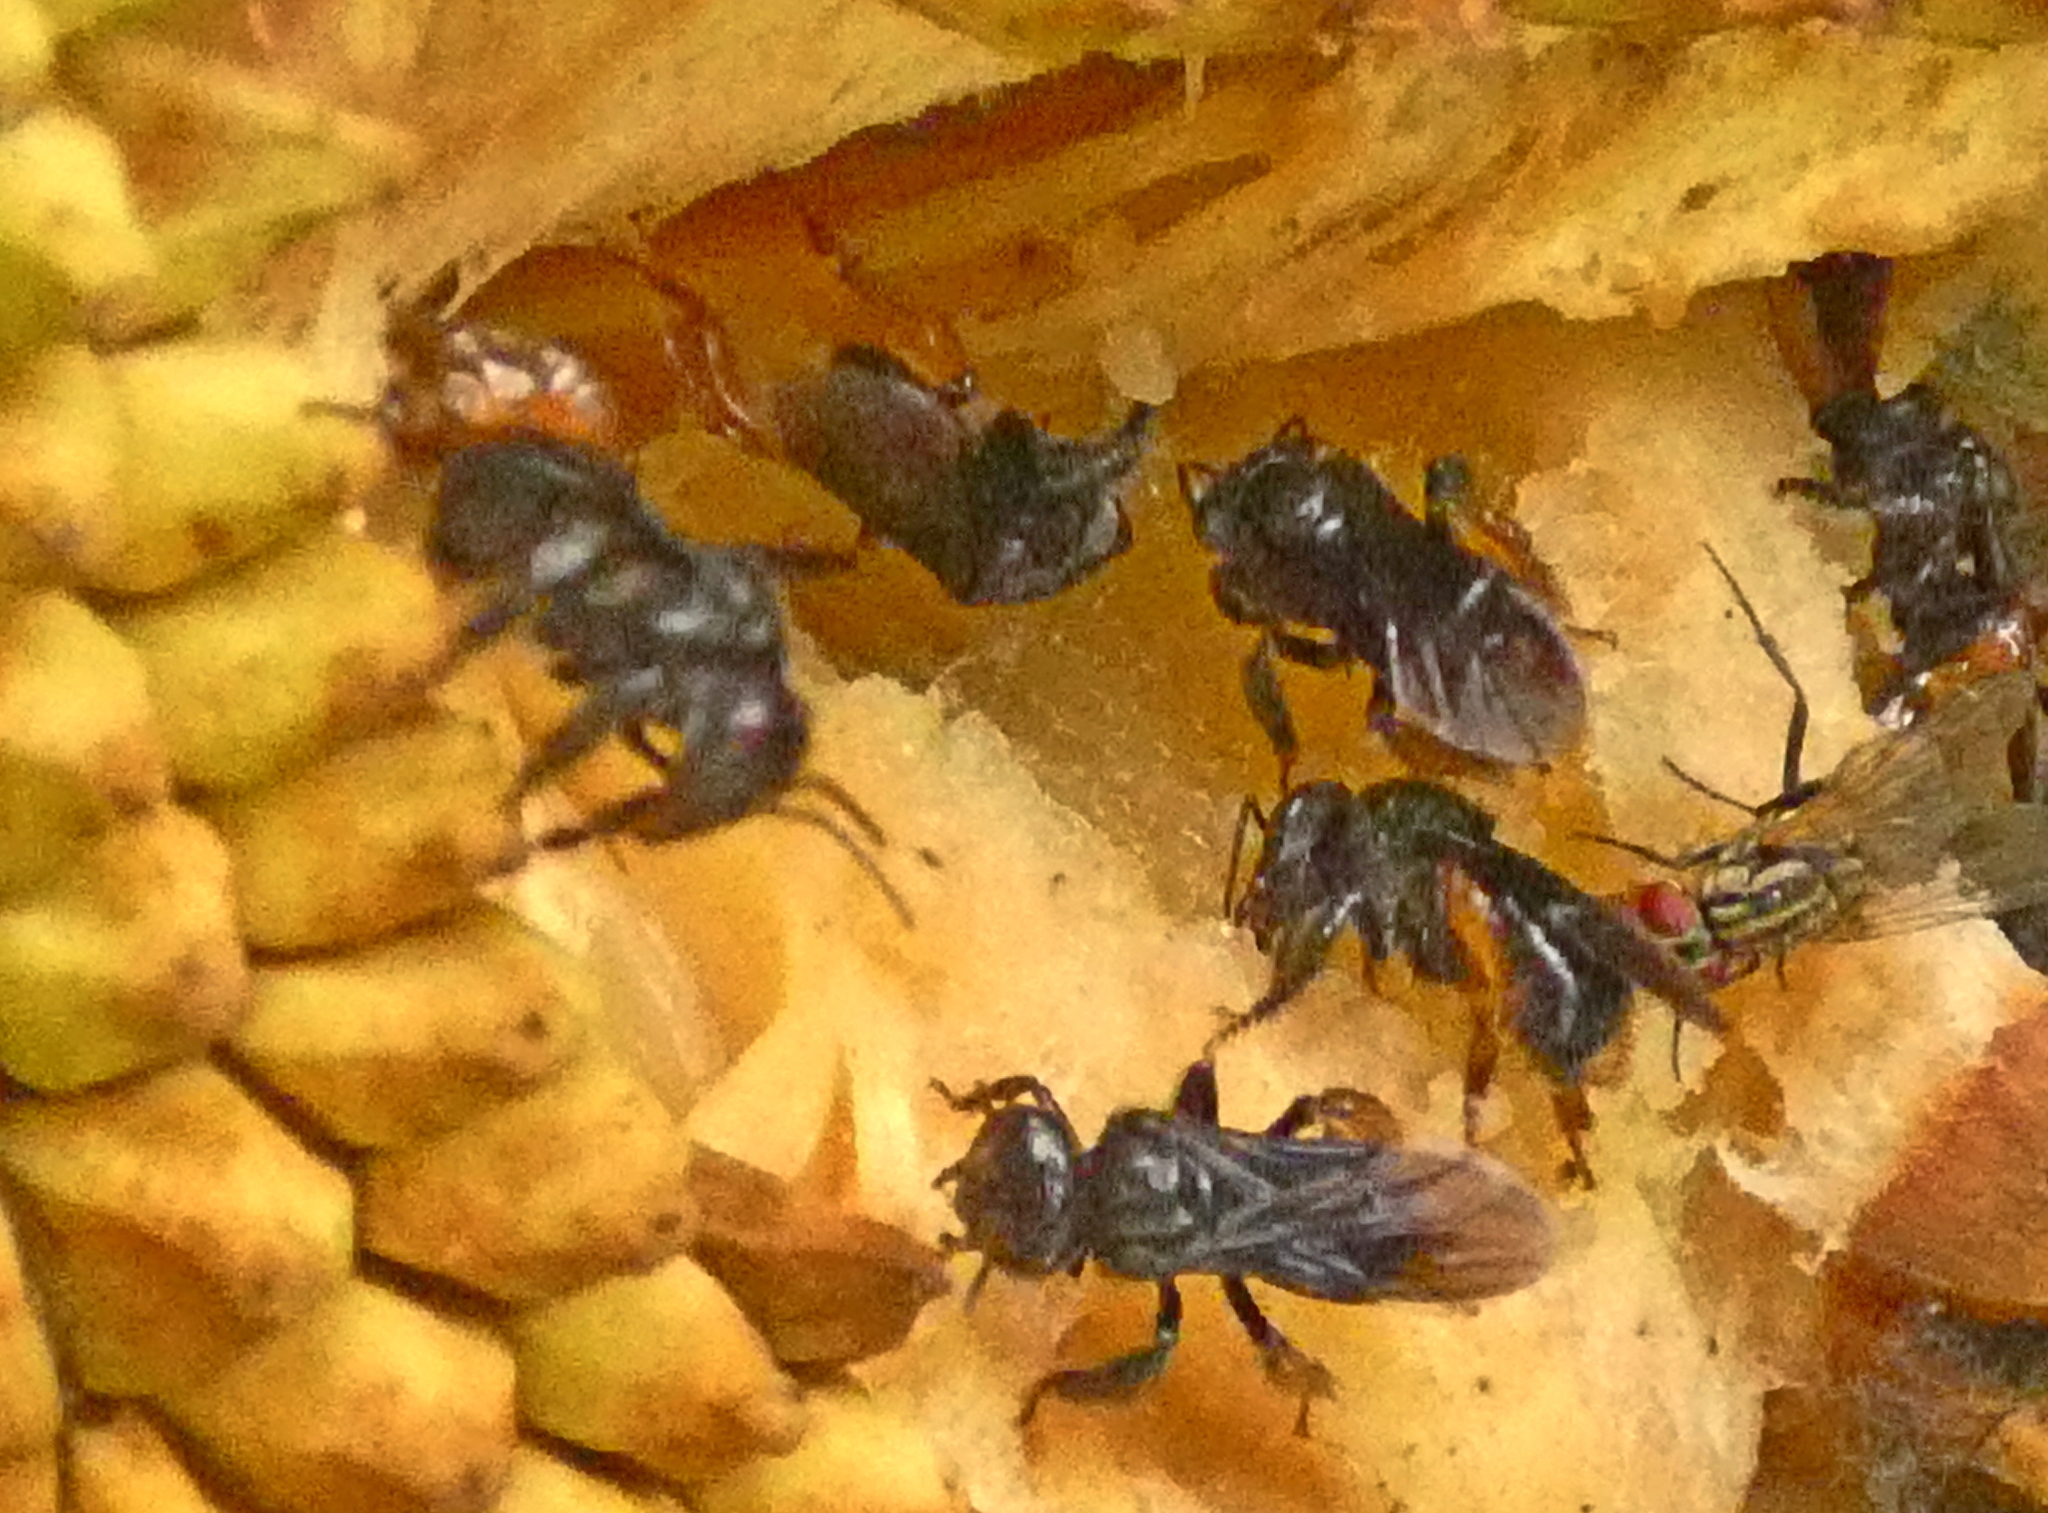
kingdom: Animalia
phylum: Arthropoda
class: Insecta
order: Hymenoptera
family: Apidae
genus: Trigona
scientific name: Trigona spinipes
